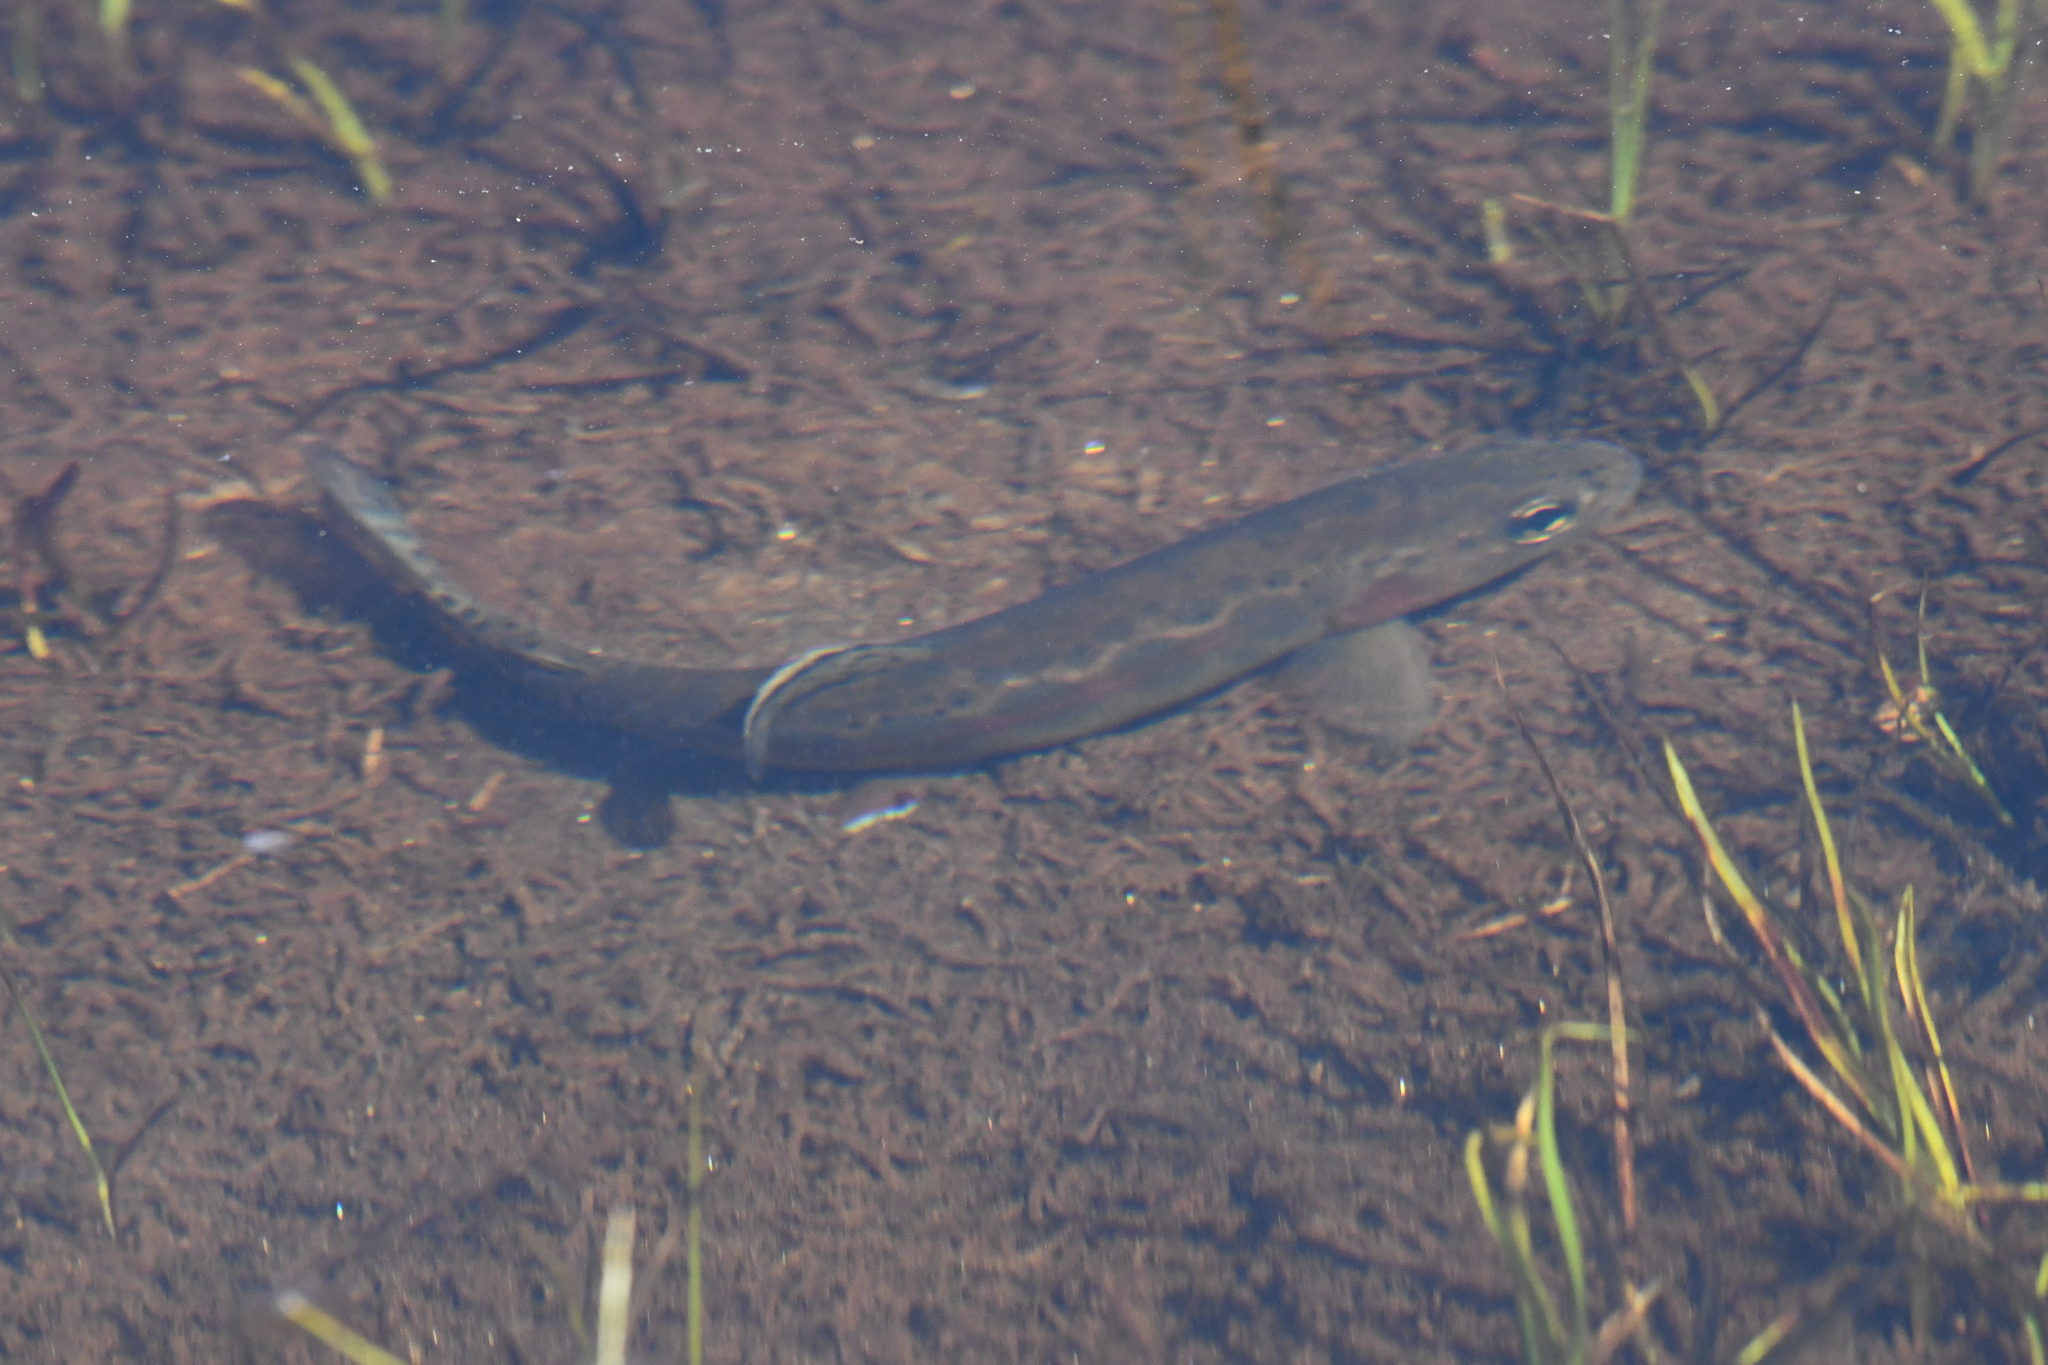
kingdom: Animalia
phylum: Chordata
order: Salmoniformes
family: Salmonidae
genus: Oncorhynchus
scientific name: Oncorhynchus aguabonita
